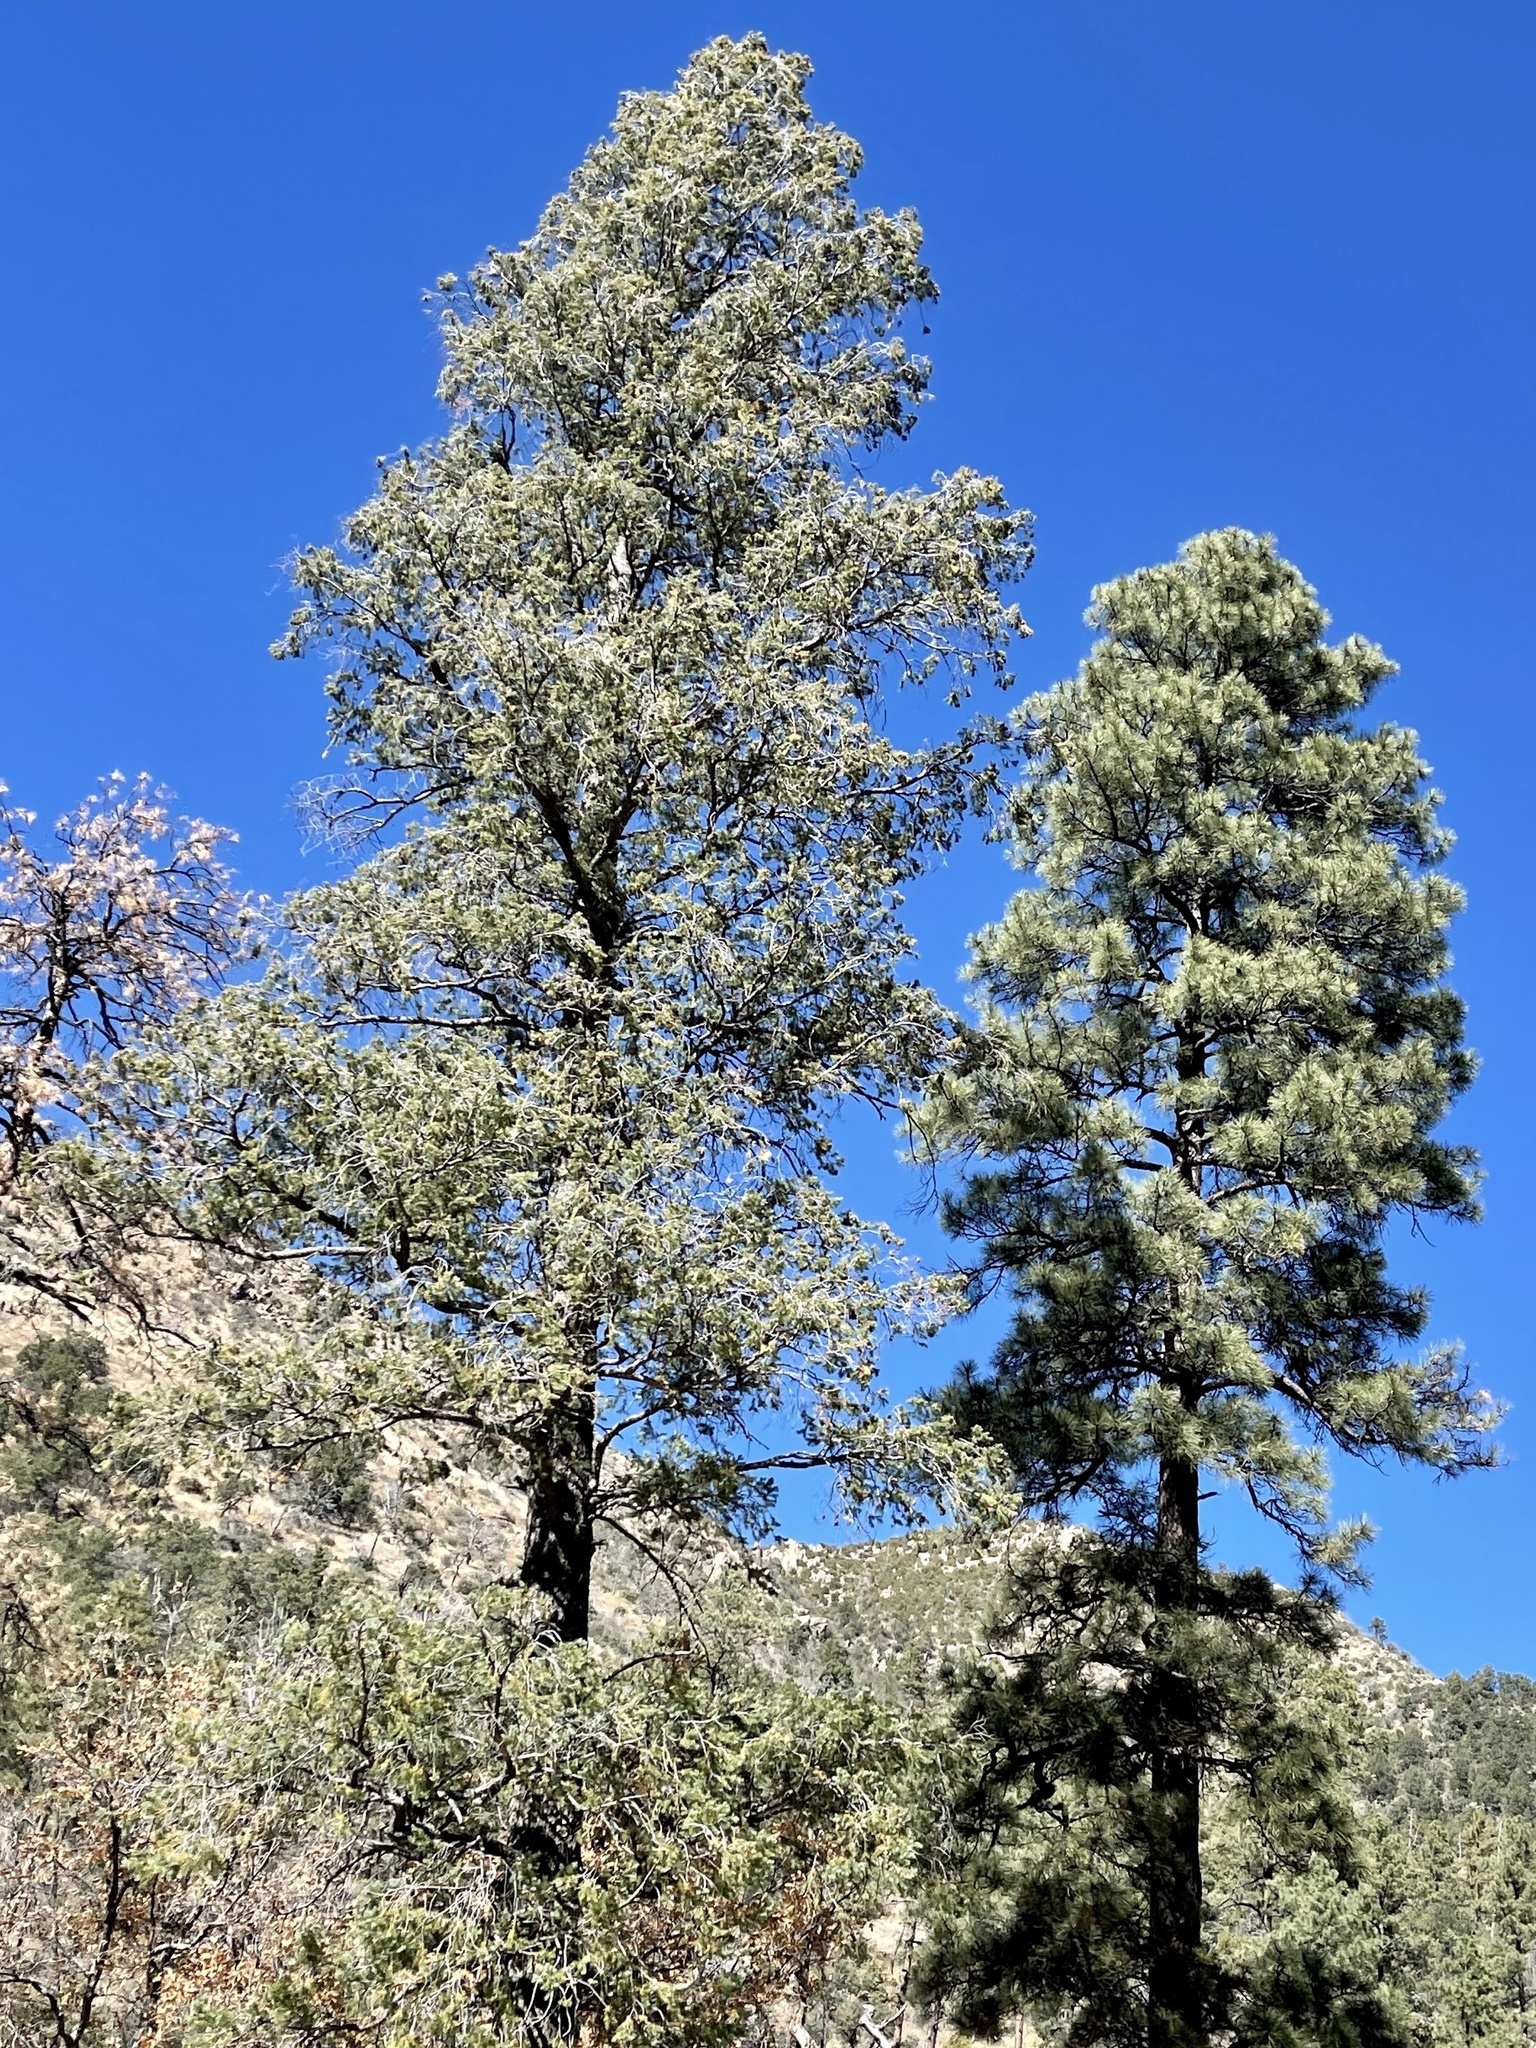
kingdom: Plantae
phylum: Tracheophyta
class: Pinopsida
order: Pinales
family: Pinaceae
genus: Pinus
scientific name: Pinus ponderosa
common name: Western yellow-pine
